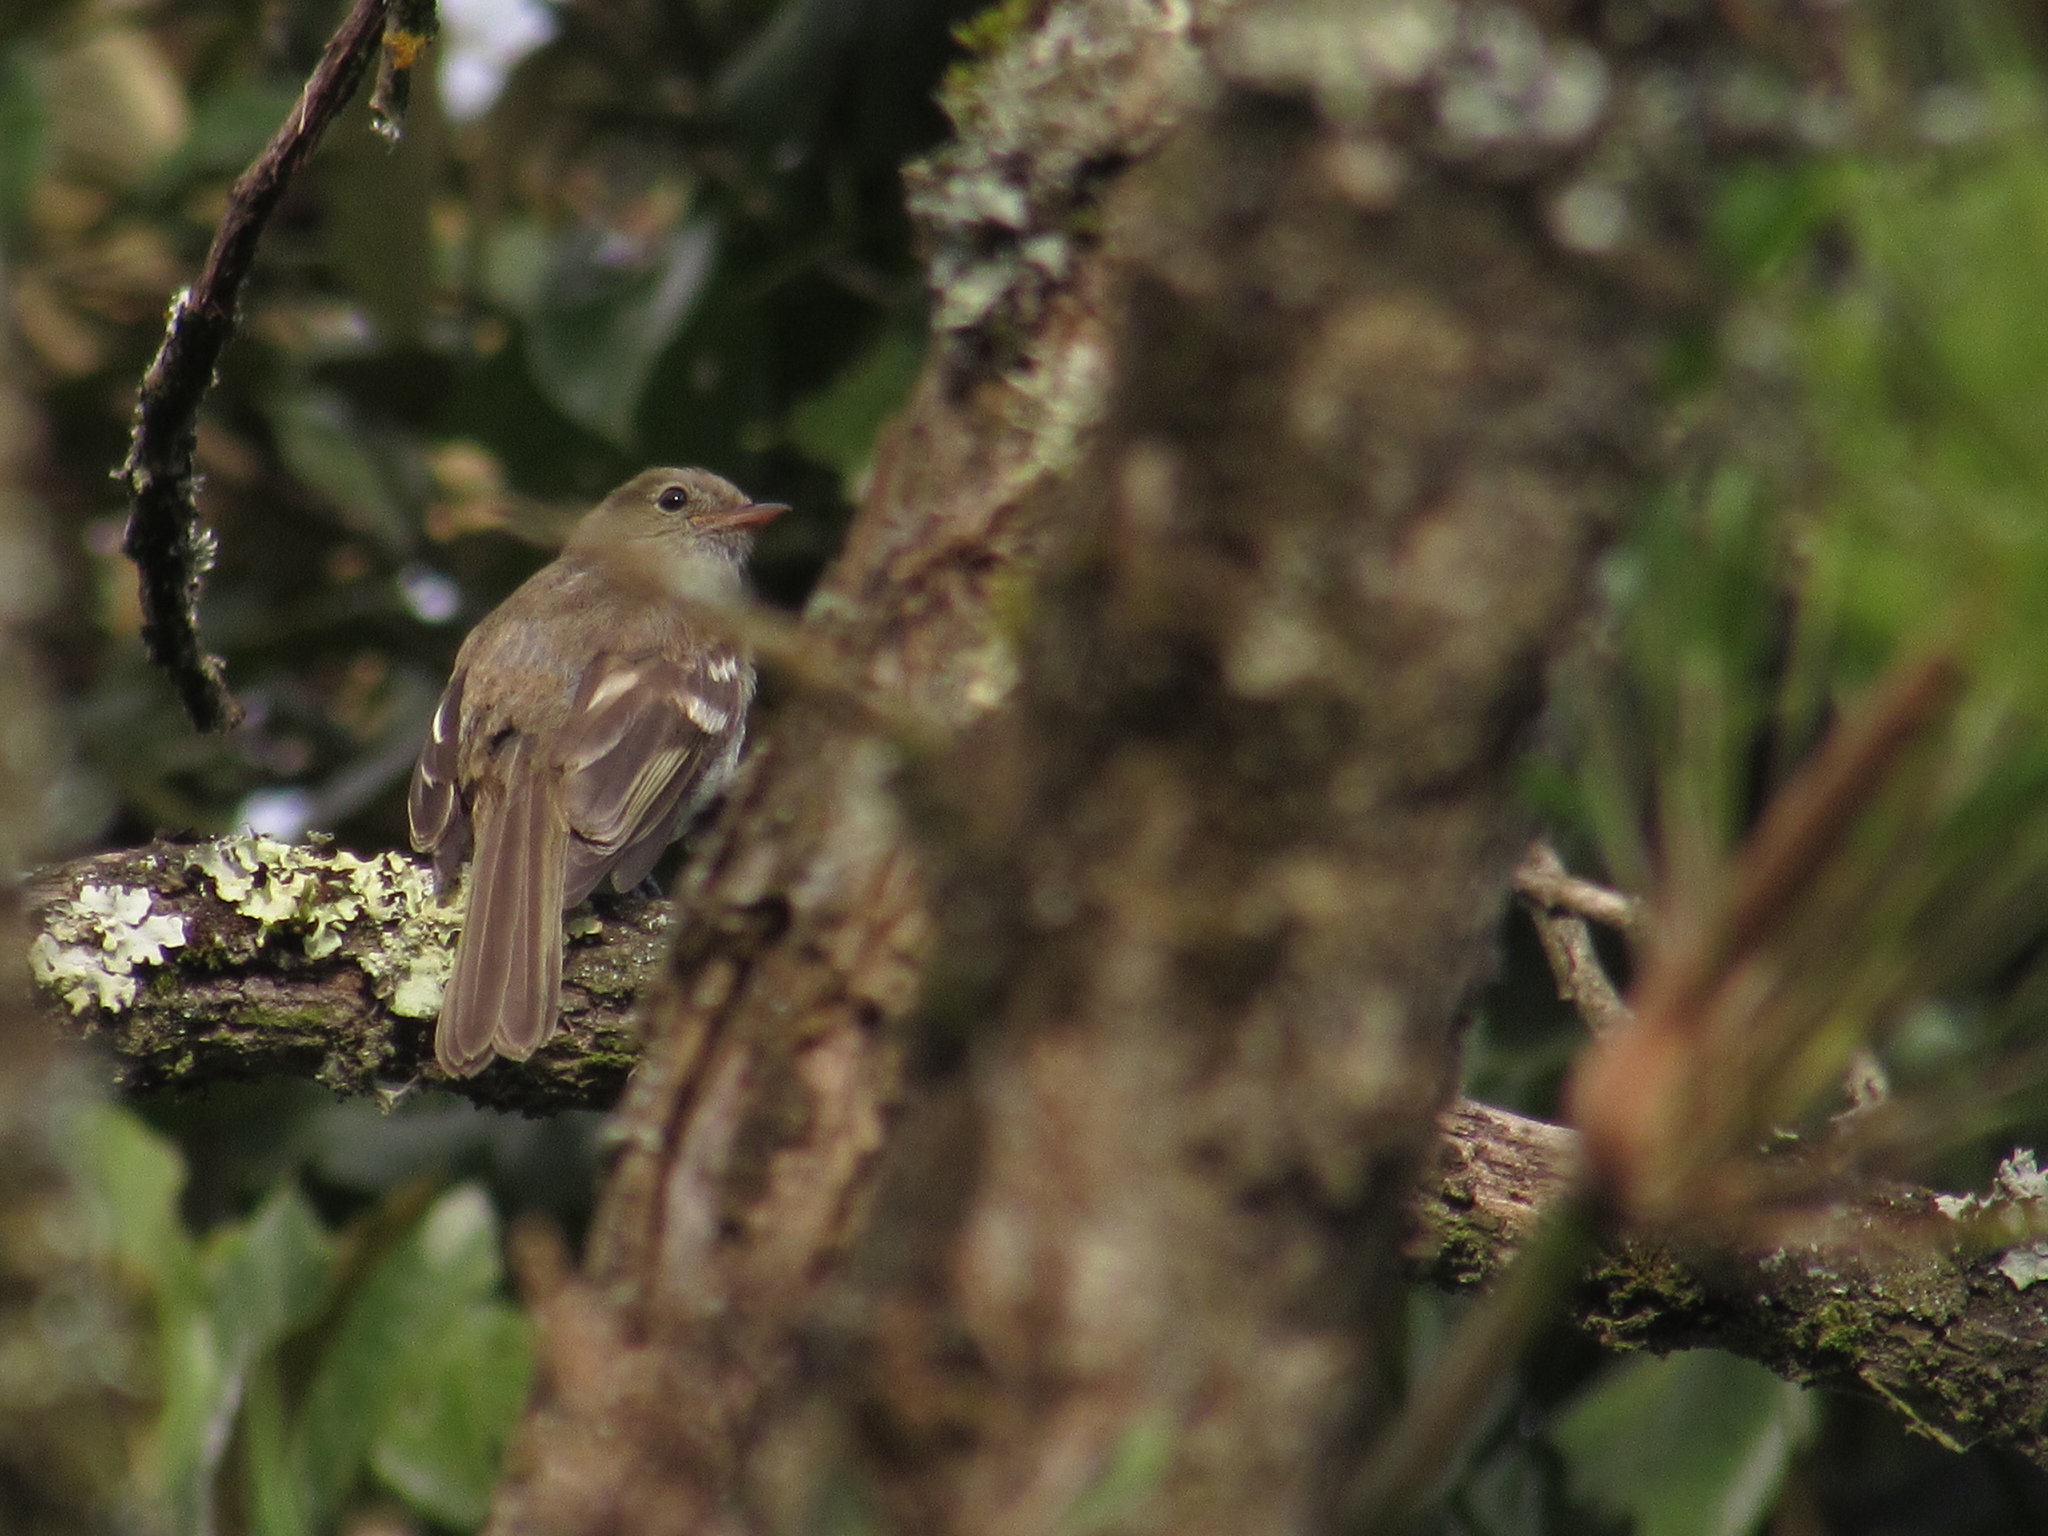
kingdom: Animalia
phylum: Chordata
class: Aves
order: Passeriformes
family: Tyrannidae
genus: Elaenia
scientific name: Elaenia frantzii
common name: Mountain elaenia
